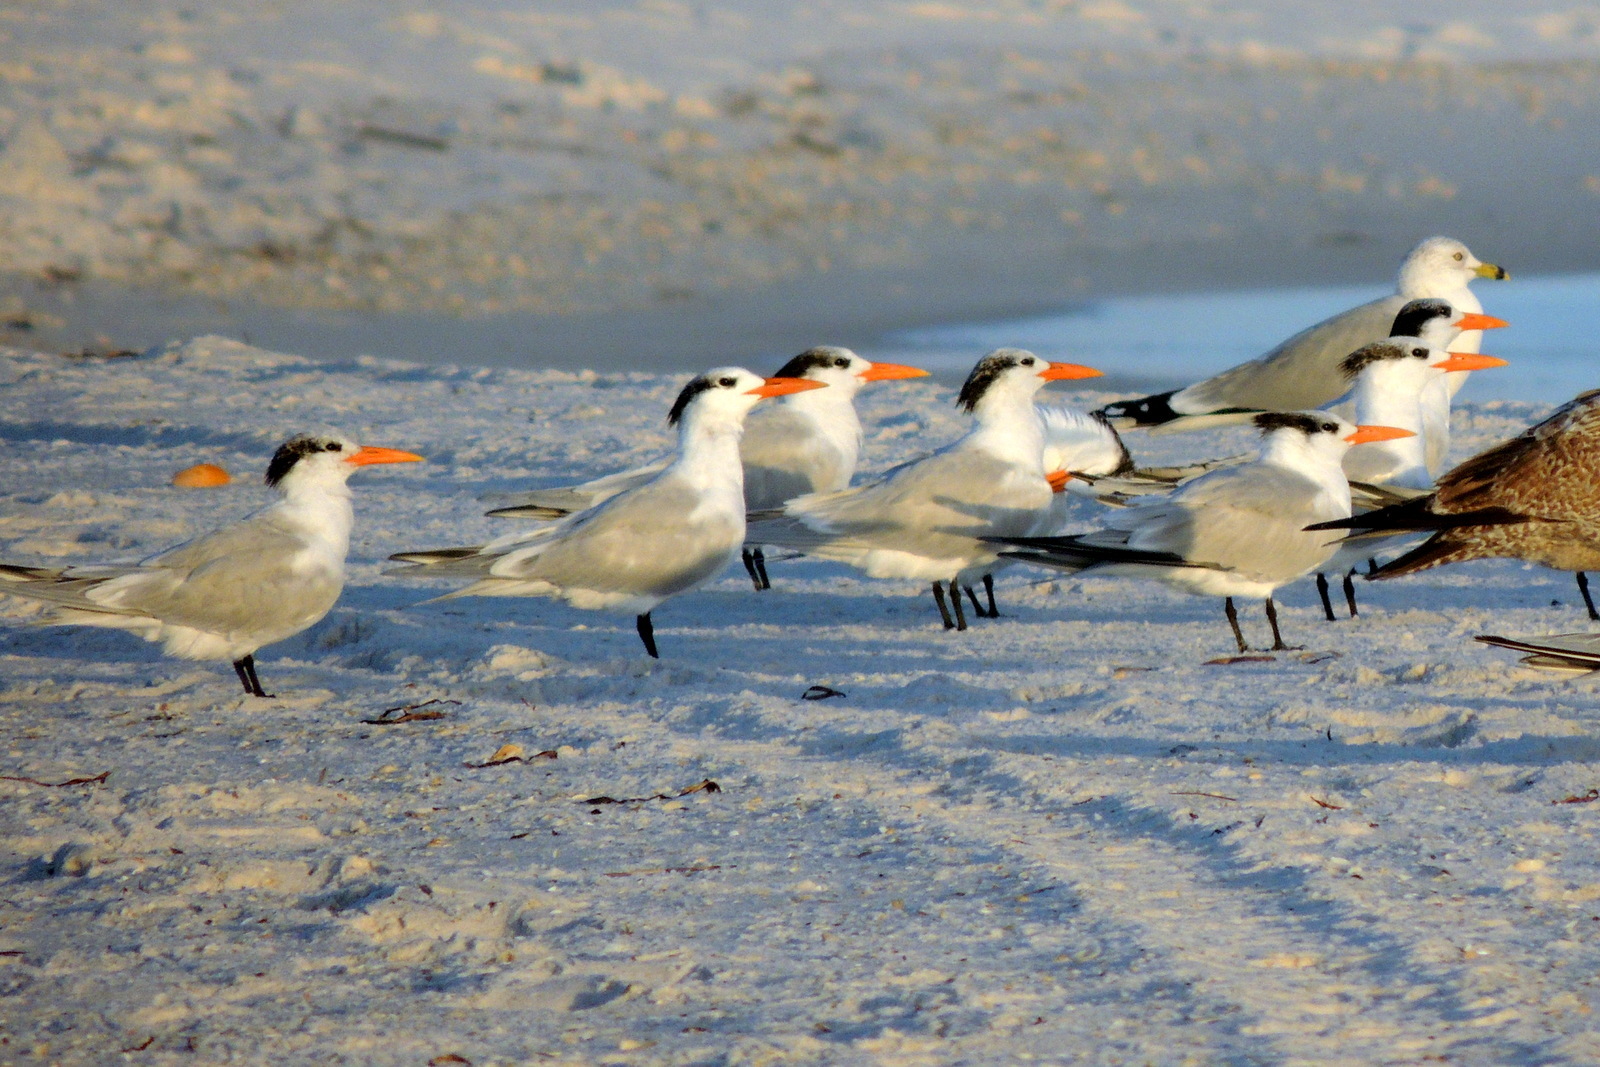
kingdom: Animalia
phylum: Chordata
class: Aves
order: Charadriiformes
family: Laridae
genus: Thalasseus
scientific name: Thalasseus maximus
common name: Royal tern
